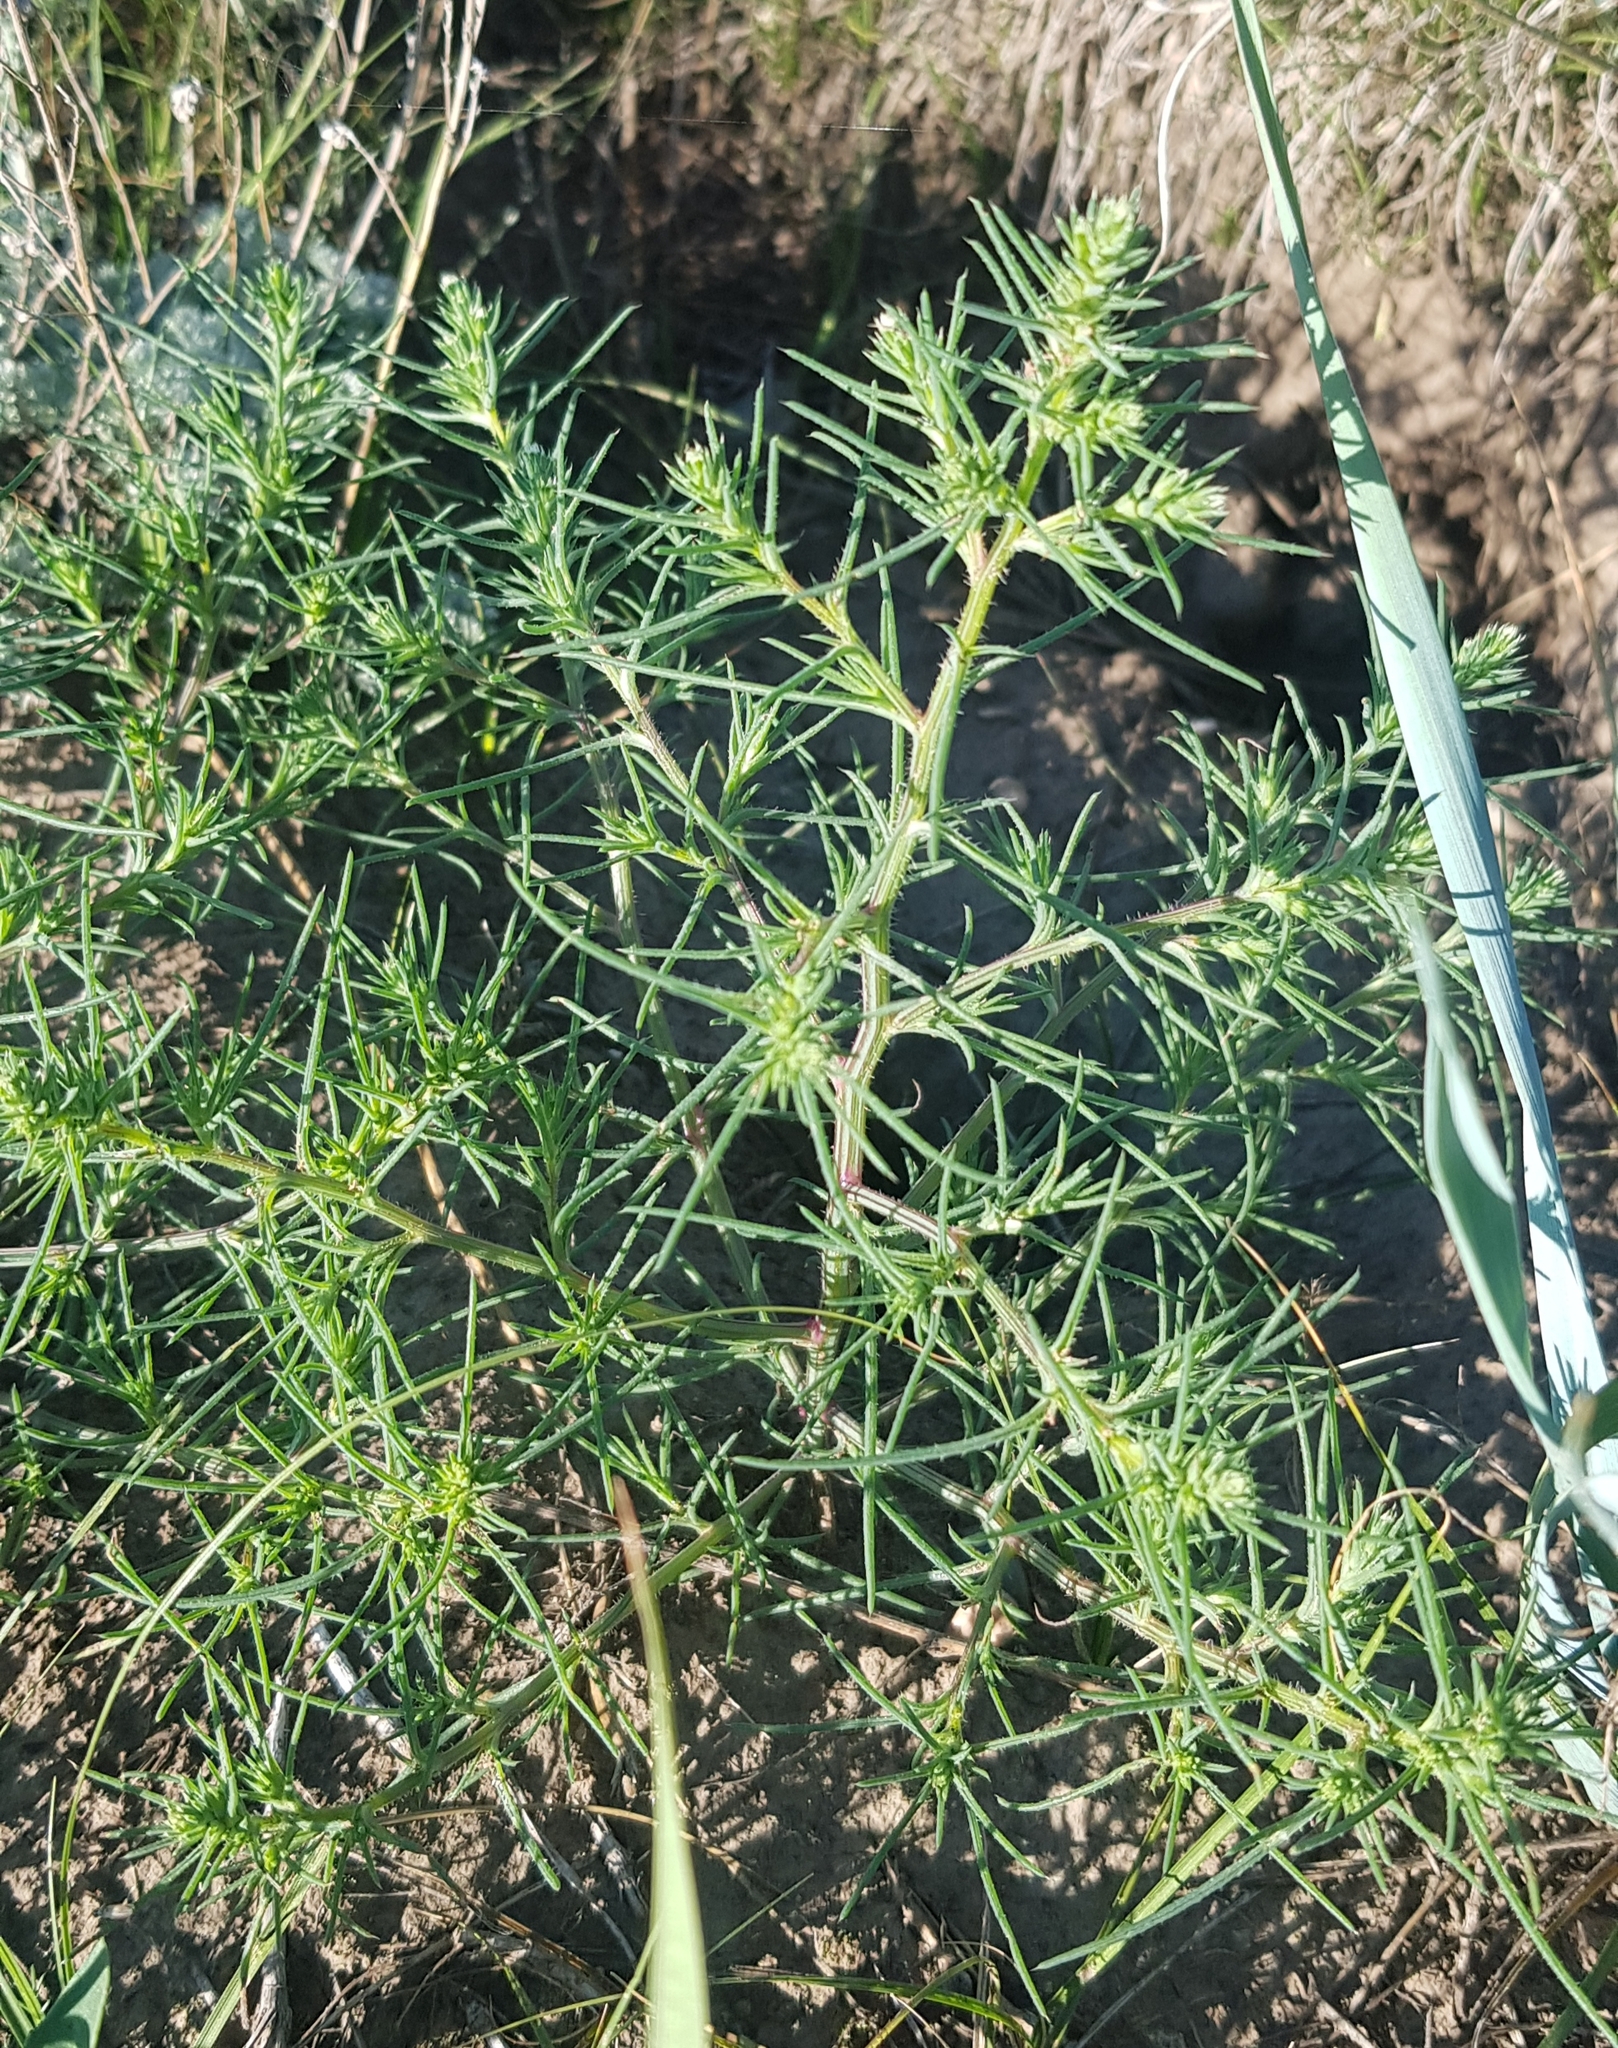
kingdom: Plantae
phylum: Tracheophyta
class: Magnoliopsida
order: Caryophyllales
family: Amaranthaceae
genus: Salsola
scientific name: Salsola collina
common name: Tumbleweed
